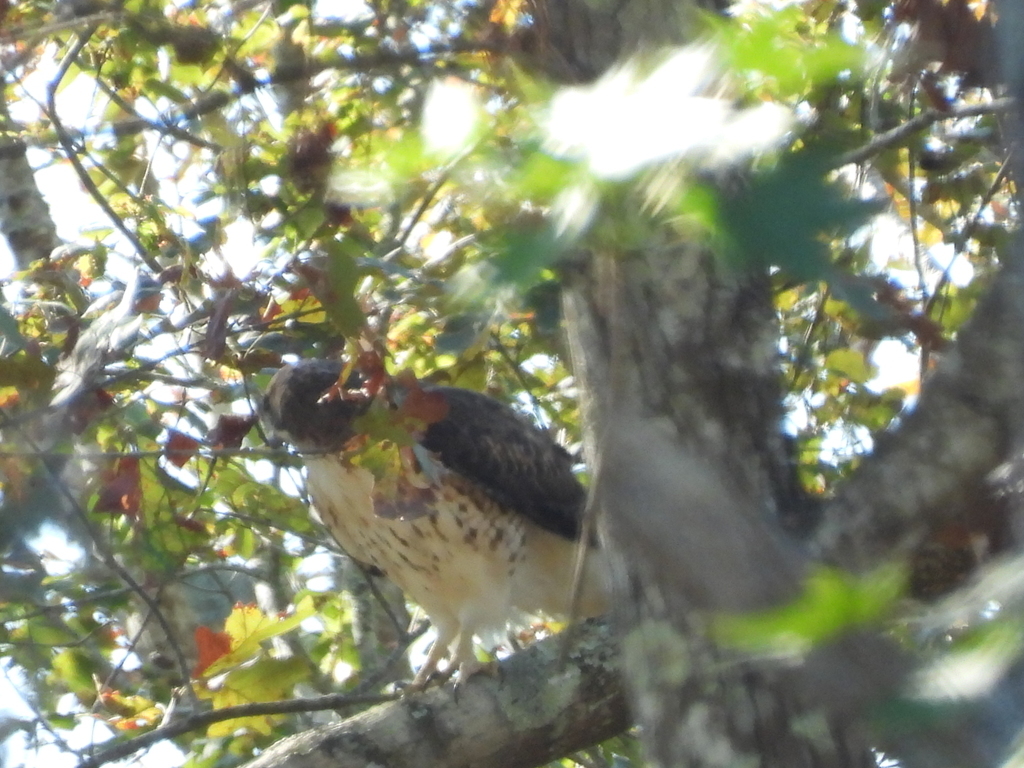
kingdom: Animalia
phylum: Chordata
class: Aves
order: Accipitriformes
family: Accipitridae
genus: Buteo
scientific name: Buteo jamaicensis
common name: Red-tailed hawk
